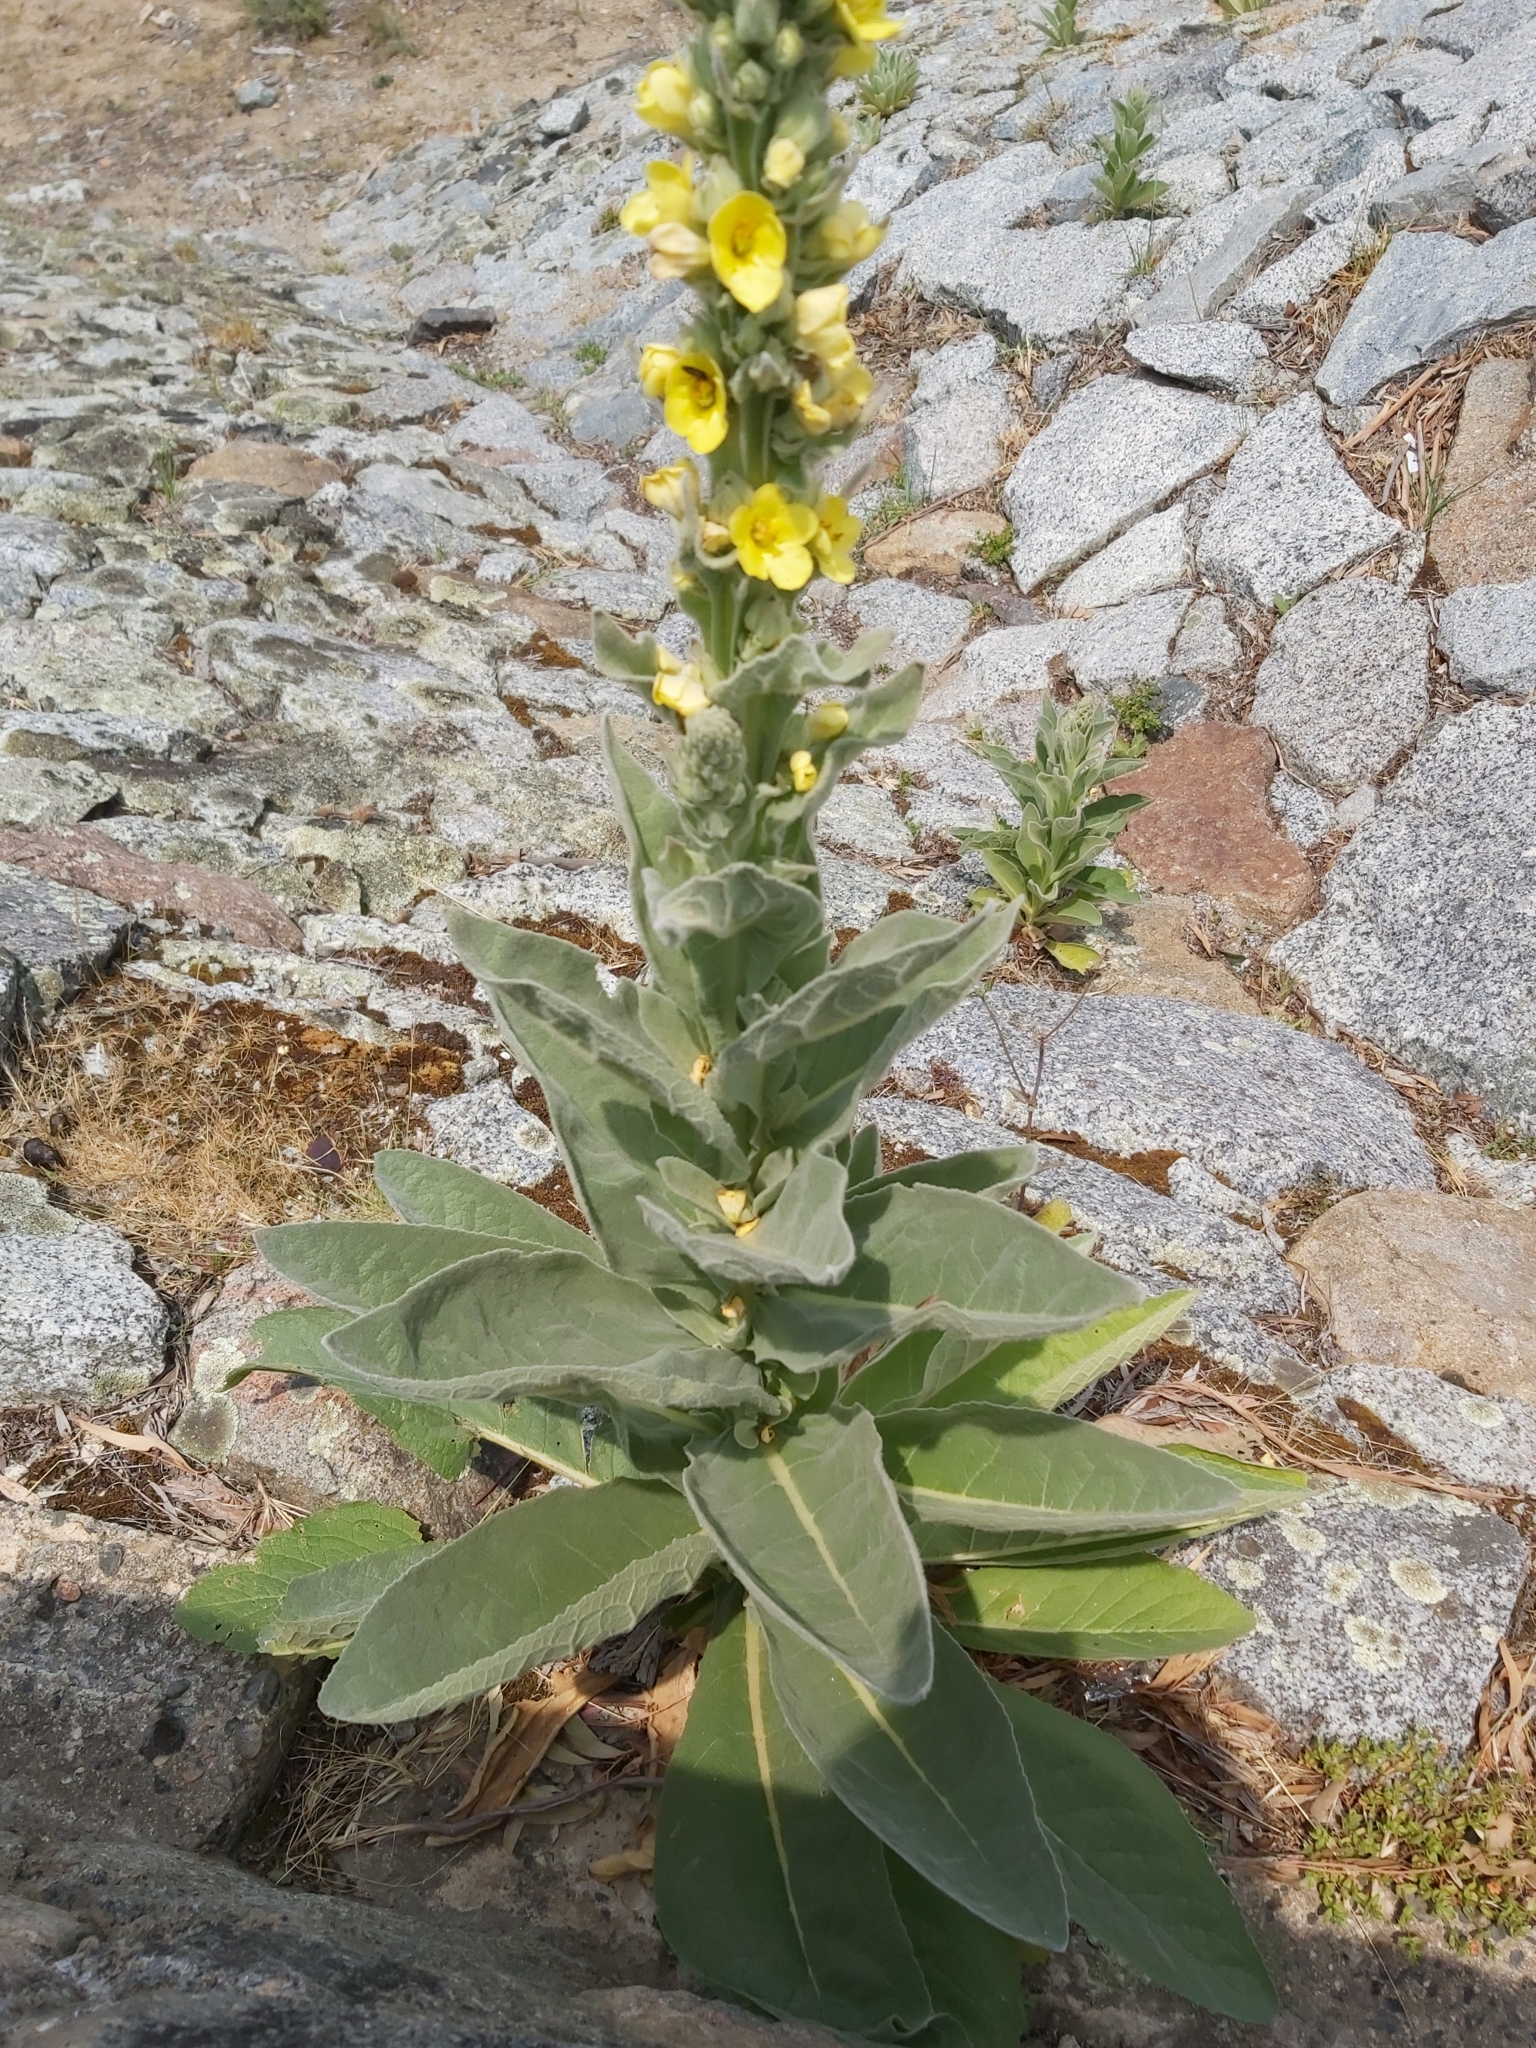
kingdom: Plantae
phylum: Tracheophyta
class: Magnoliopsida
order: Lamiales
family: Scrophulariaceae
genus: Verbascum
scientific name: Verbascum thapsus
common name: Common mullein
